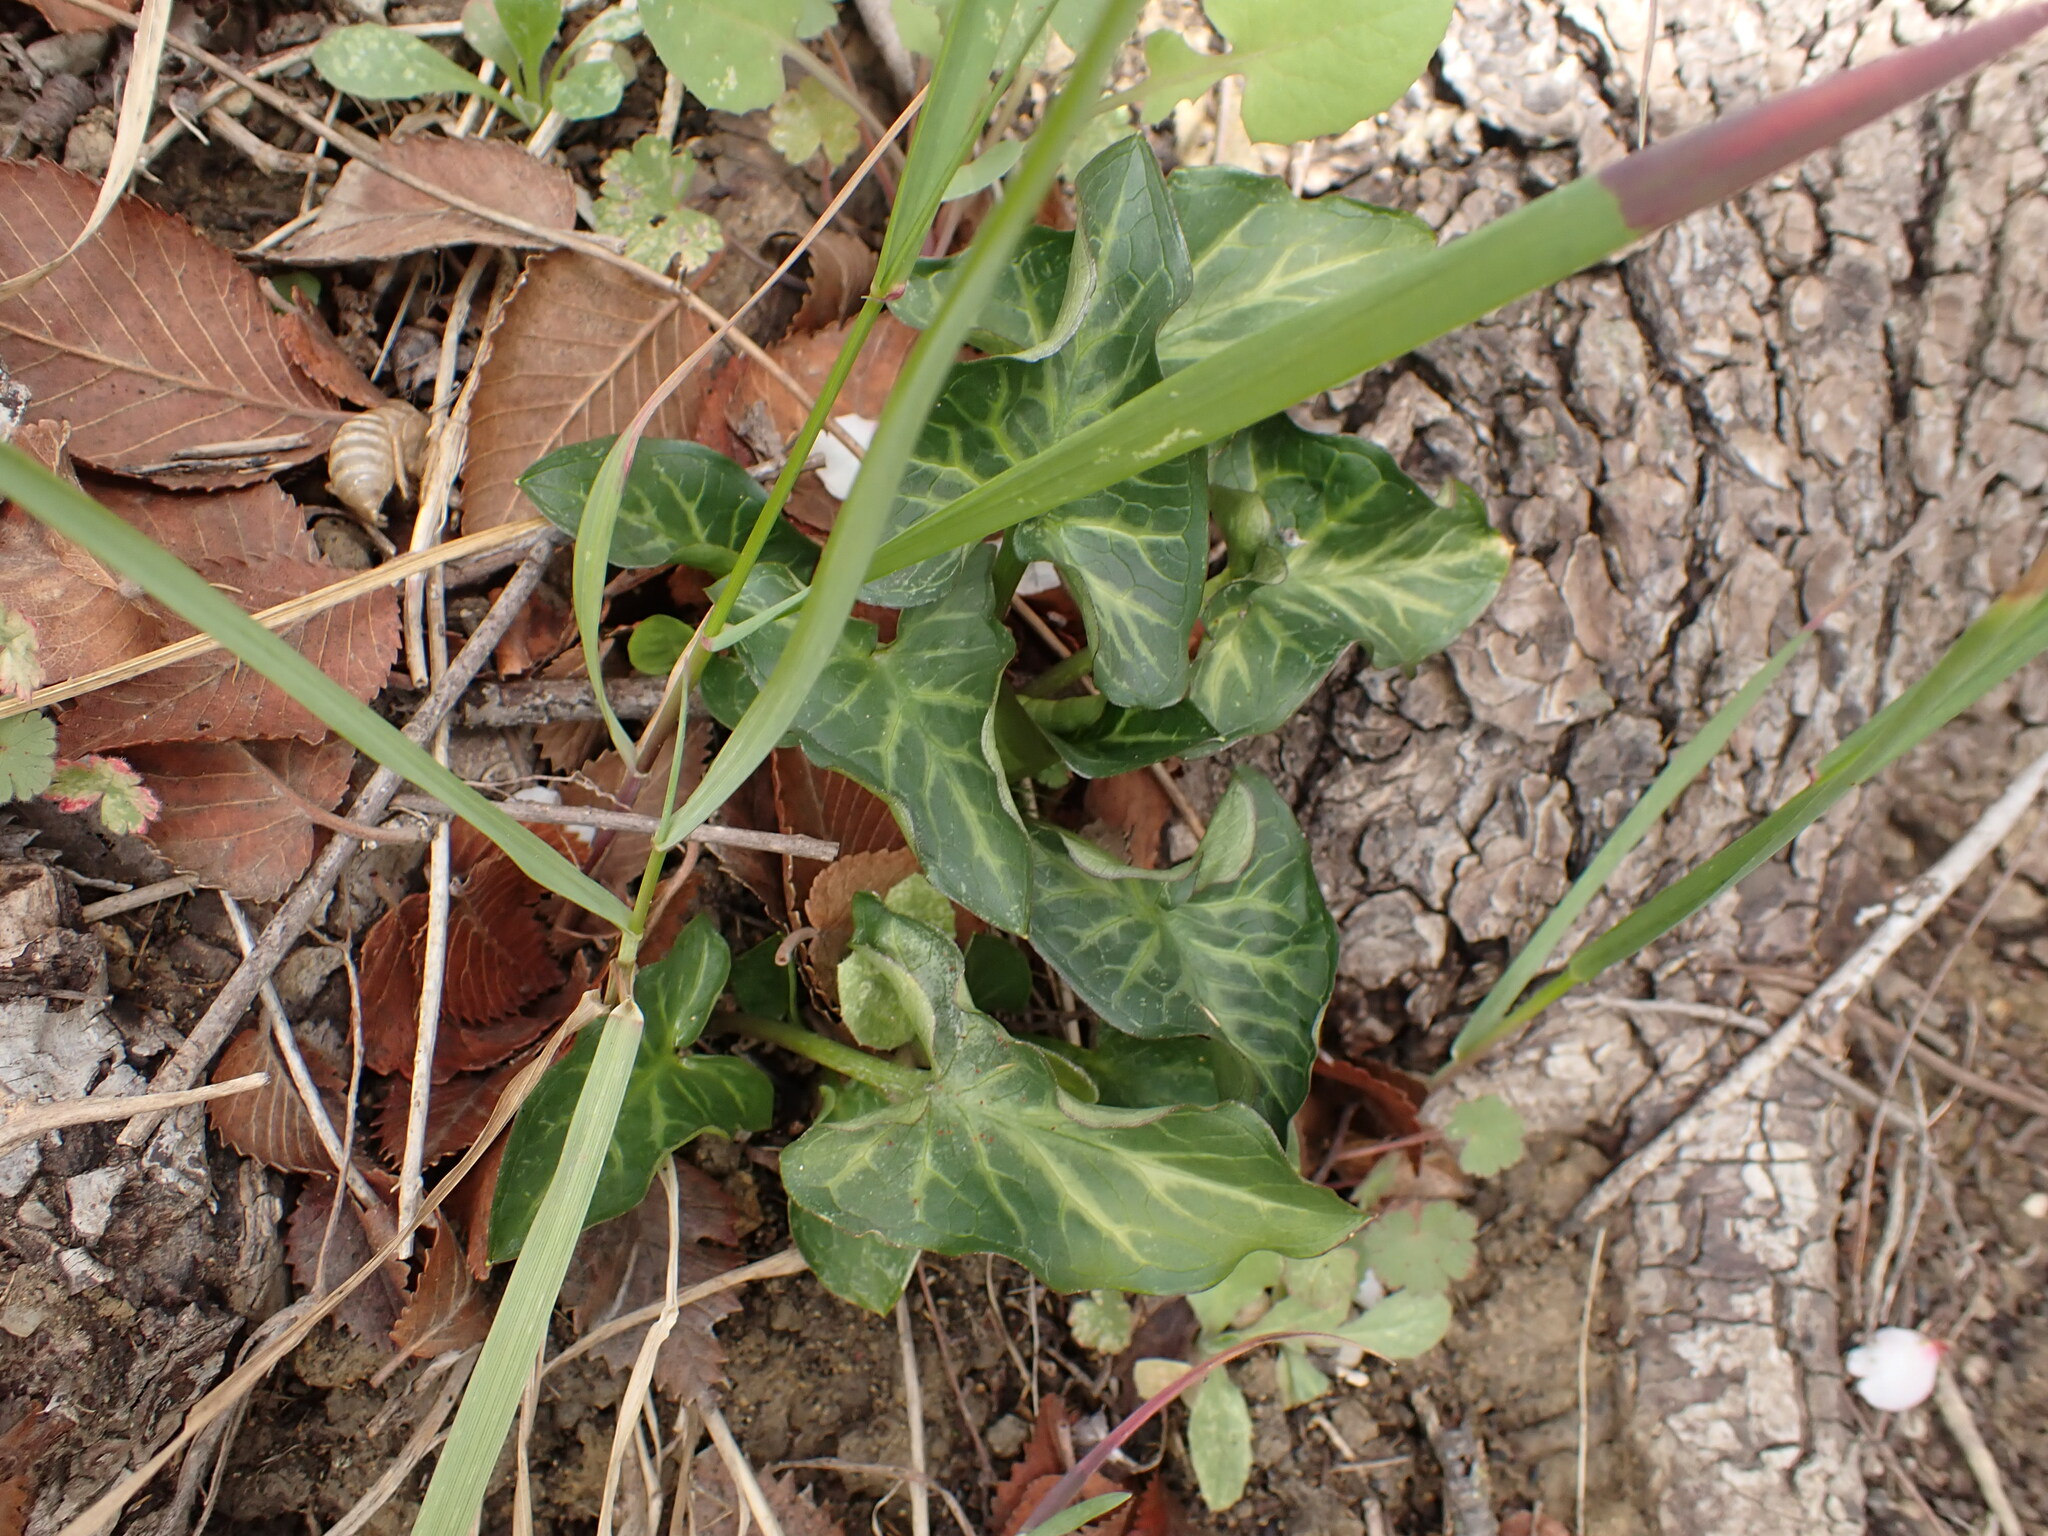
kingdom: Plantae
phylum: Tracheophyta
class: Liliopsida
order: Alismatales
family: Araceae
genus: Arum
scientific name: Arum italicum
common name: Italian lords-and-ladies
